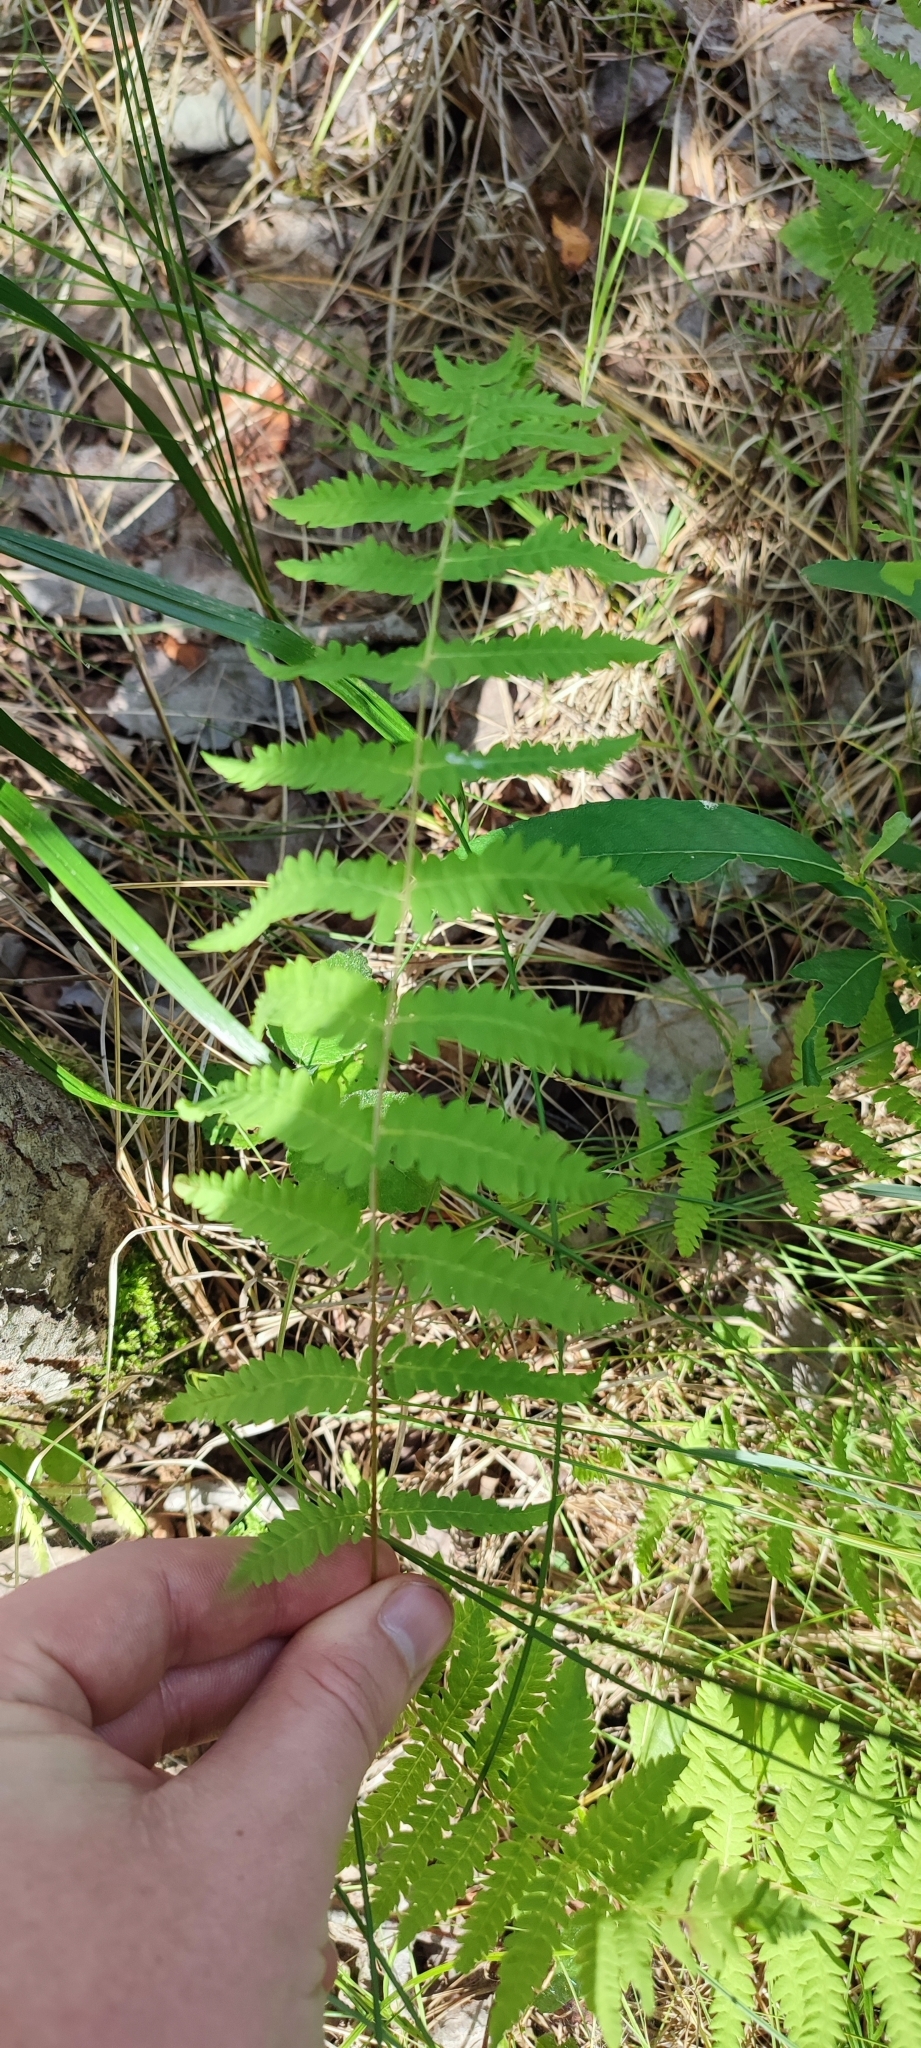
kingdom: Plantae
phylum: Tracheophyta
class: Polypodiopsida
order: Polypodiales
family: Thelypteridaceae
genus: Thelypteris
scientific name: Thelypteris palustris
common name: Marsh fern
